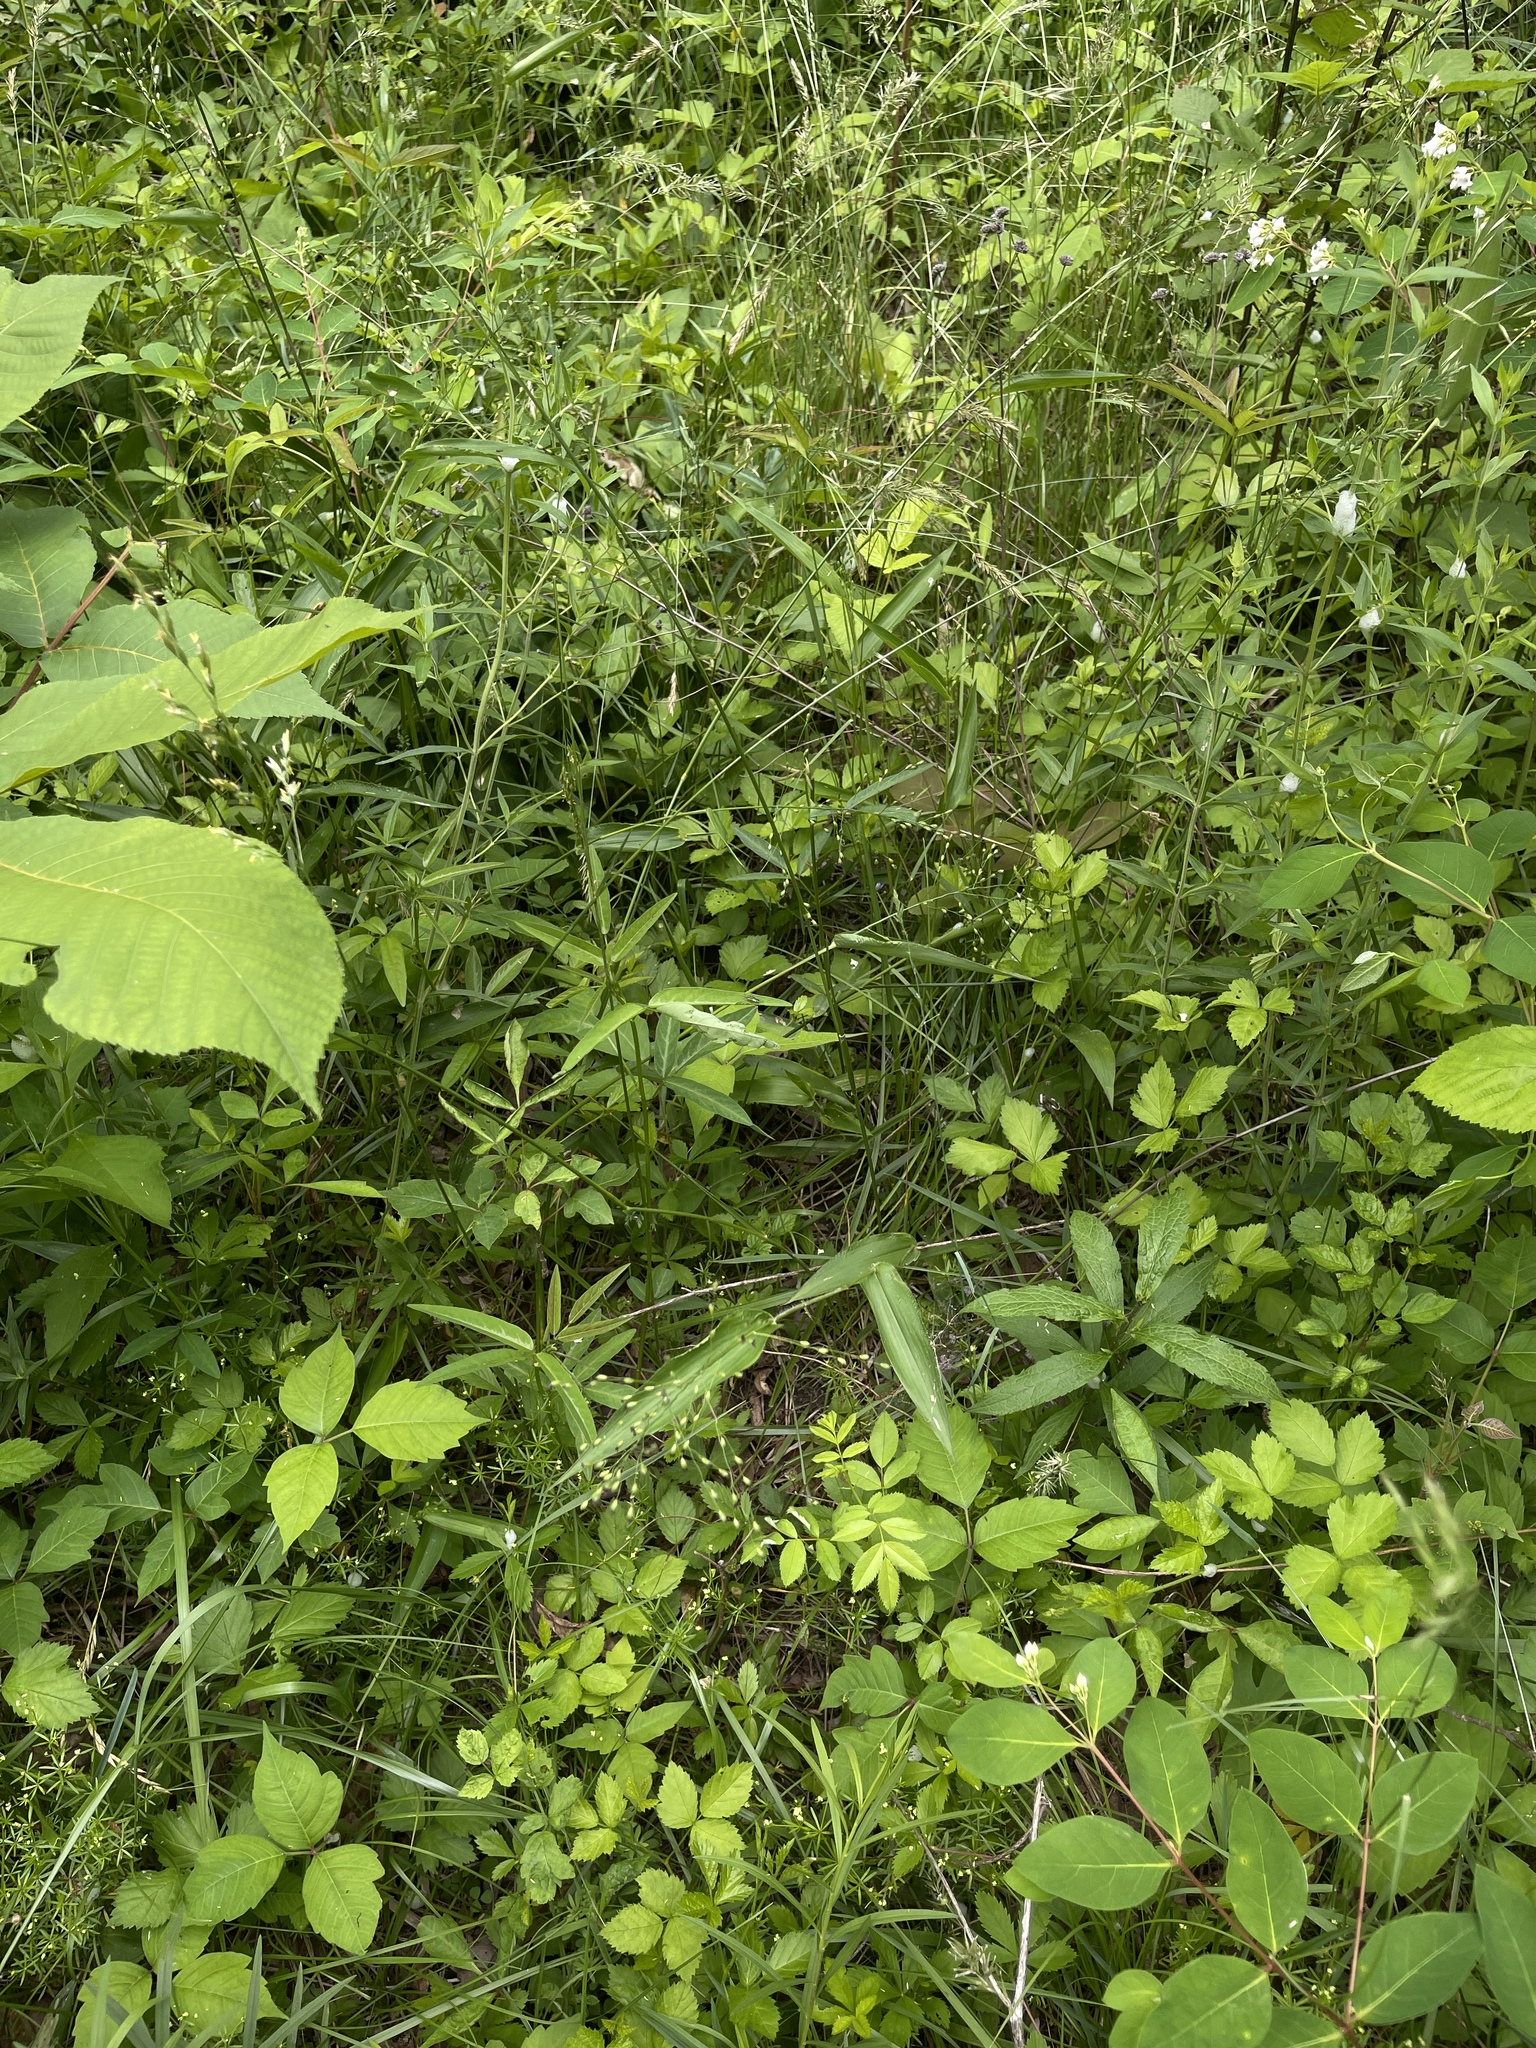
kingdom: Plantae
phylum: Tracheophyta
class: Liliopsida
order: Poales
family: Poaceae
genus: Dichanthelium
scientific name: Dichanthelium latifolium
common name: Broad-leaved panicgrass
